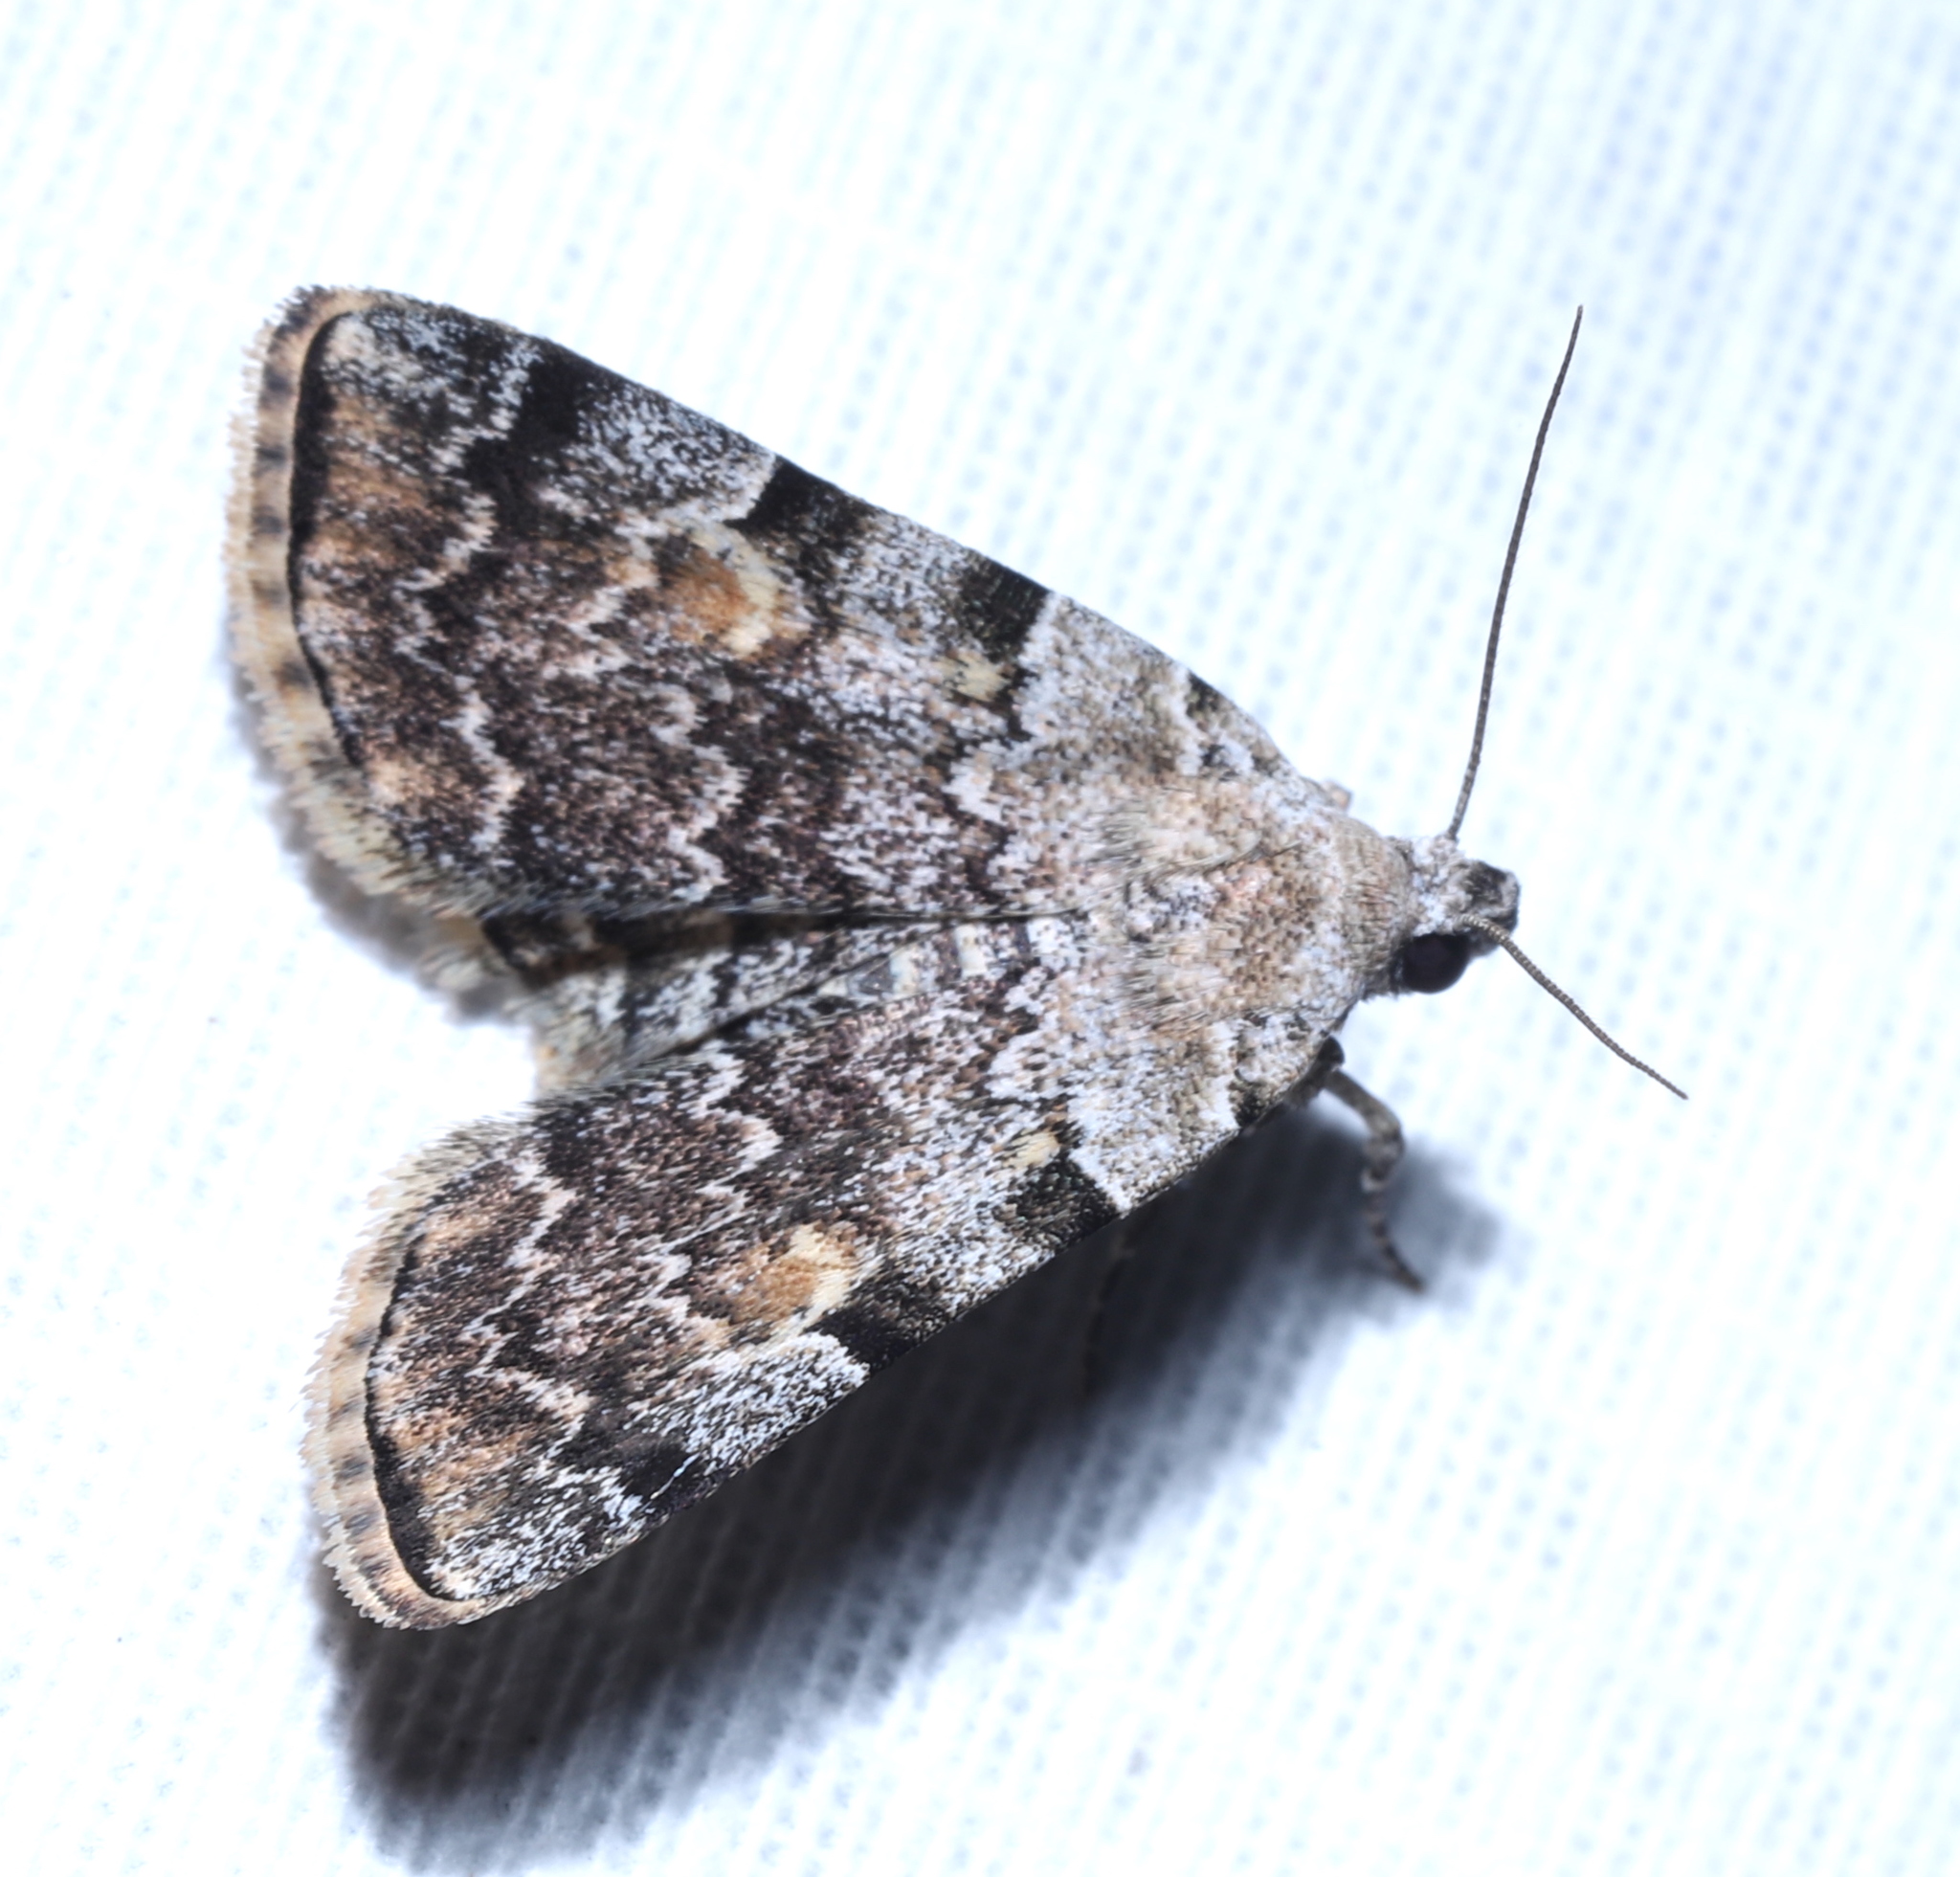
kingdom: Animalia
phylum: Arthropoda
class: Insecta
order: Lepidoptera
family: Erebidae
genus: Idia
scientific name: Idia americalis
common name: American idia moth
